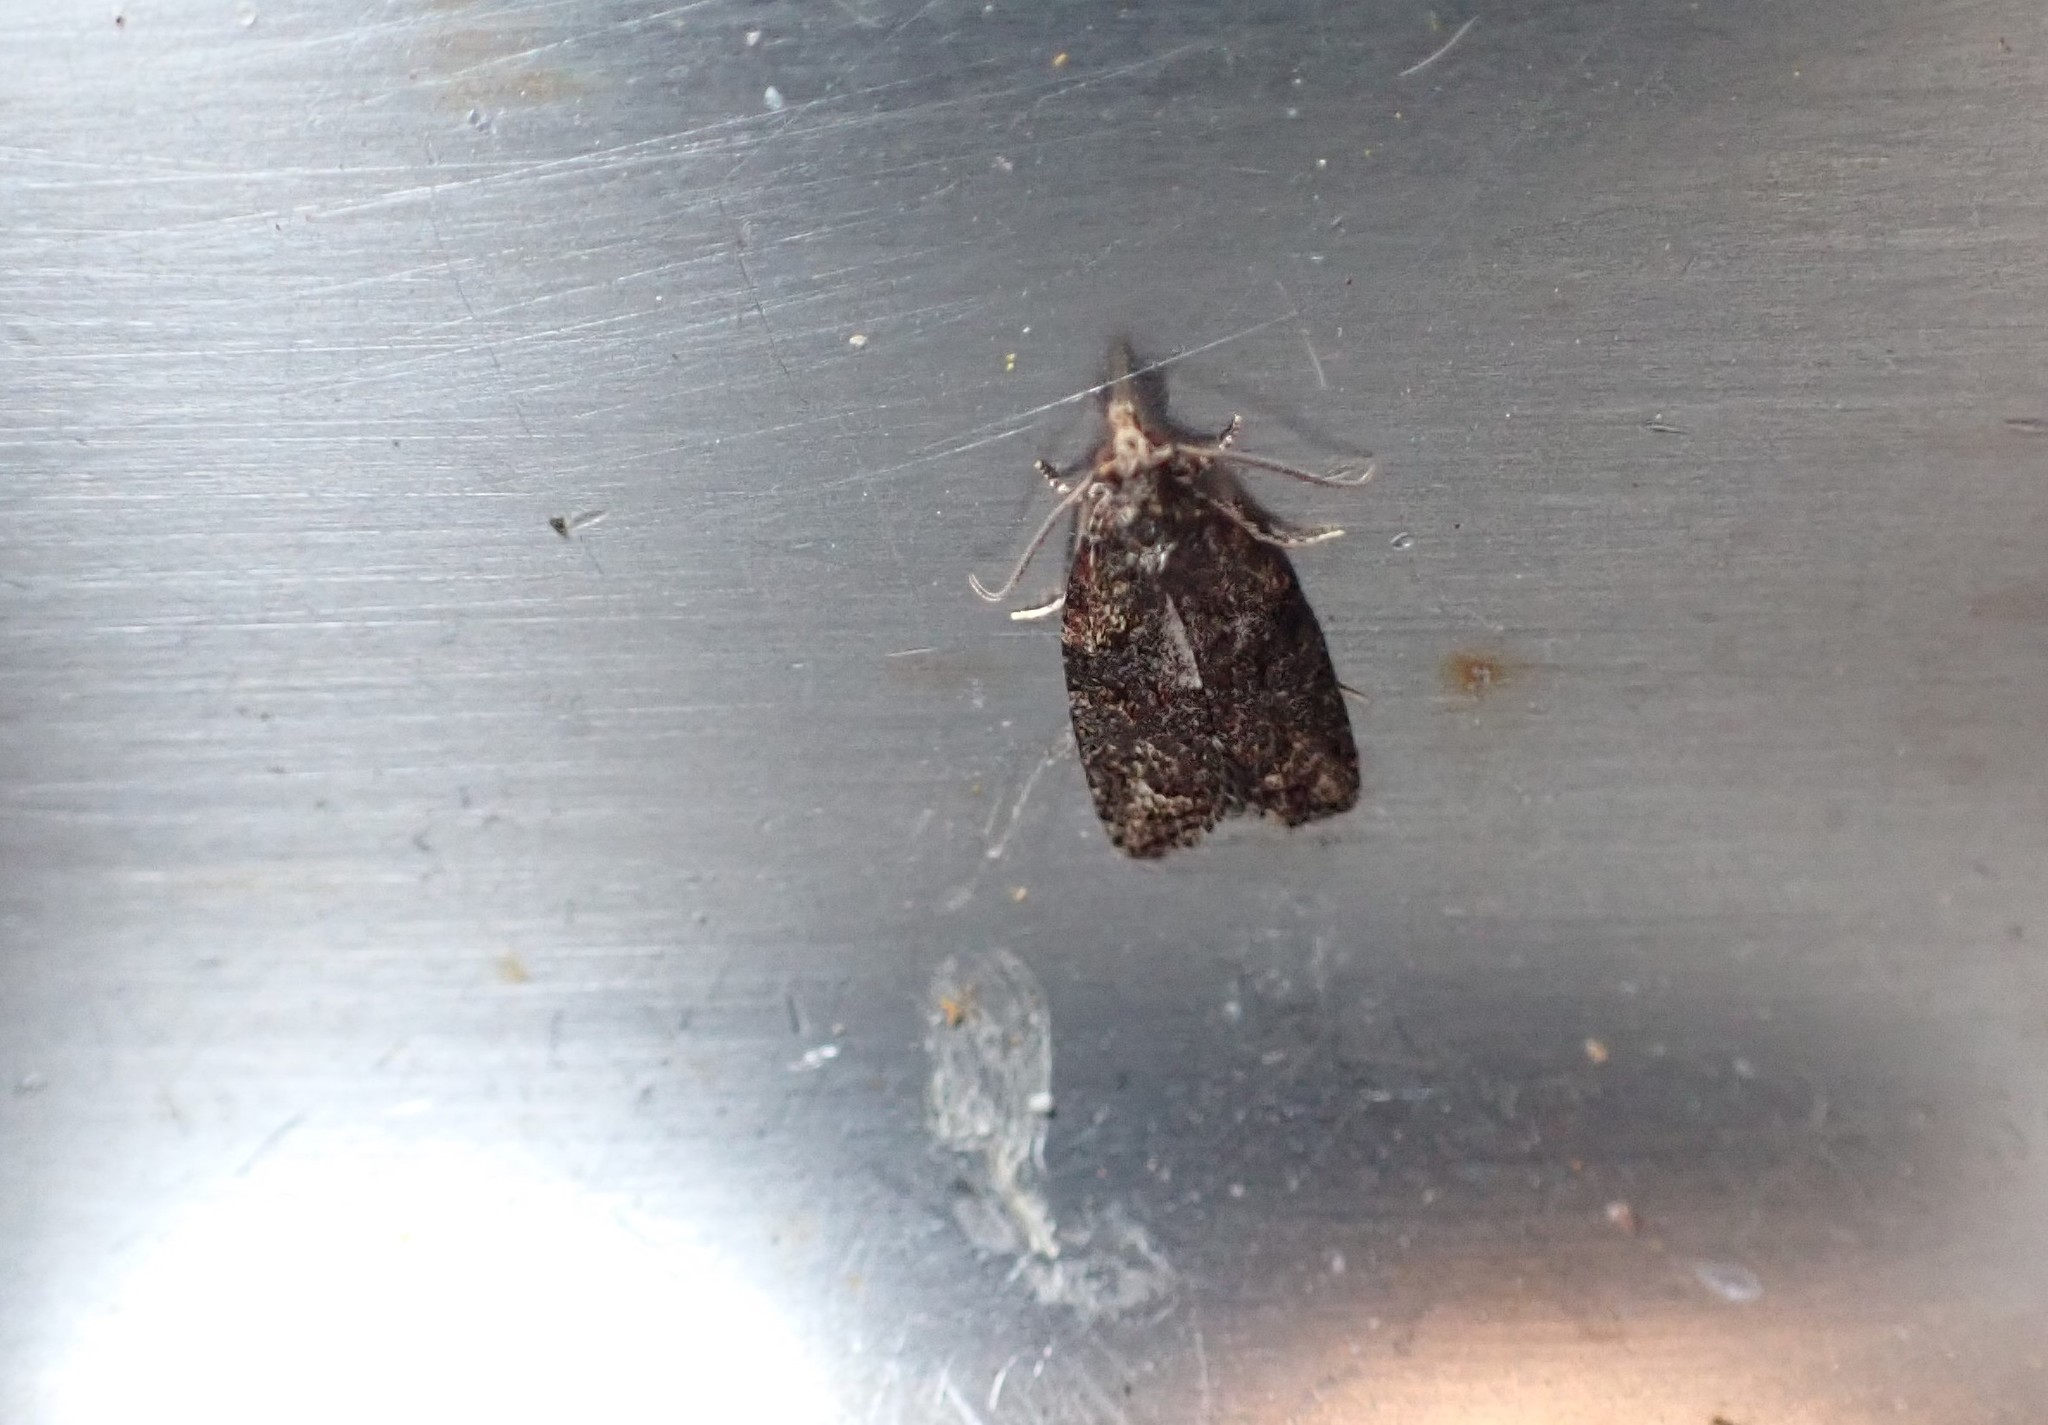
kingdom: Animalia
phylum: Arthropoda
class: Insecta
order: Lepidoptera
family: Tortricidae
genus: Capua
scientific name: Capua intractana
